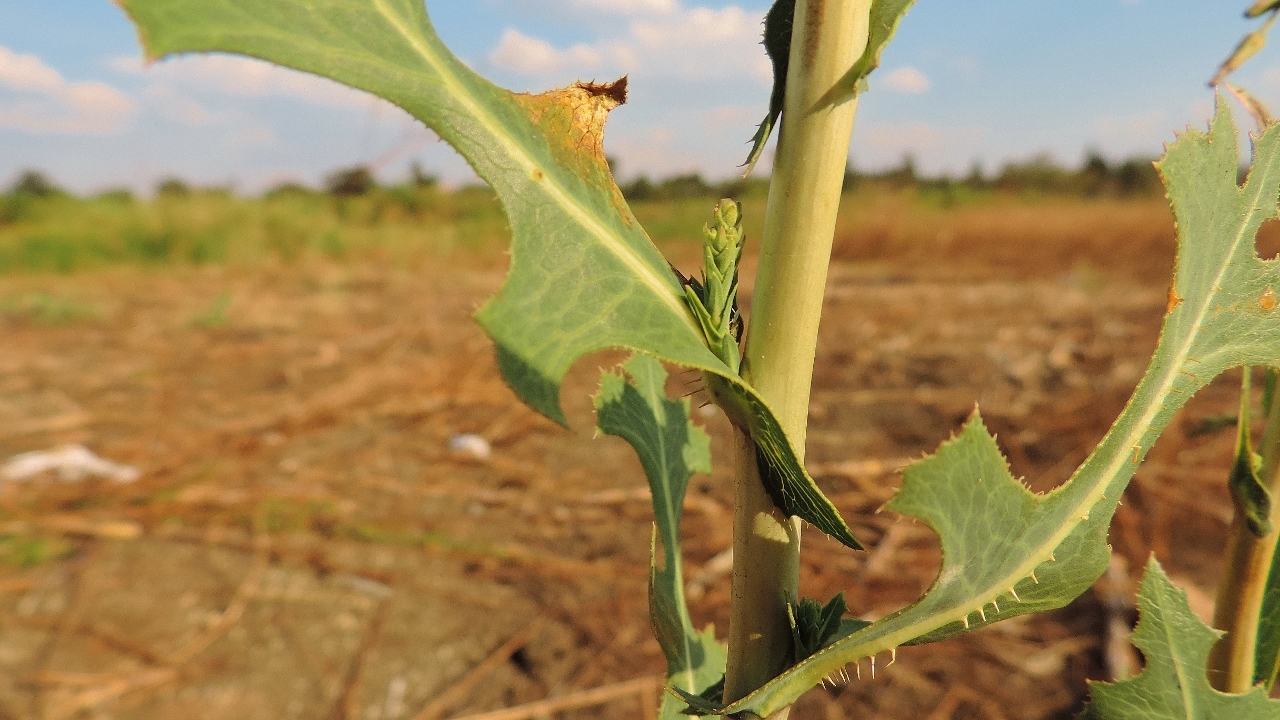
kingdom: Plantae
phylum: Tracheophyta
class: Magnoliopsida
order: Asterales
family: Asteraceae
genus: Lactuca
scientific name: Lactuca serriola
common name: Prickly lettuce
